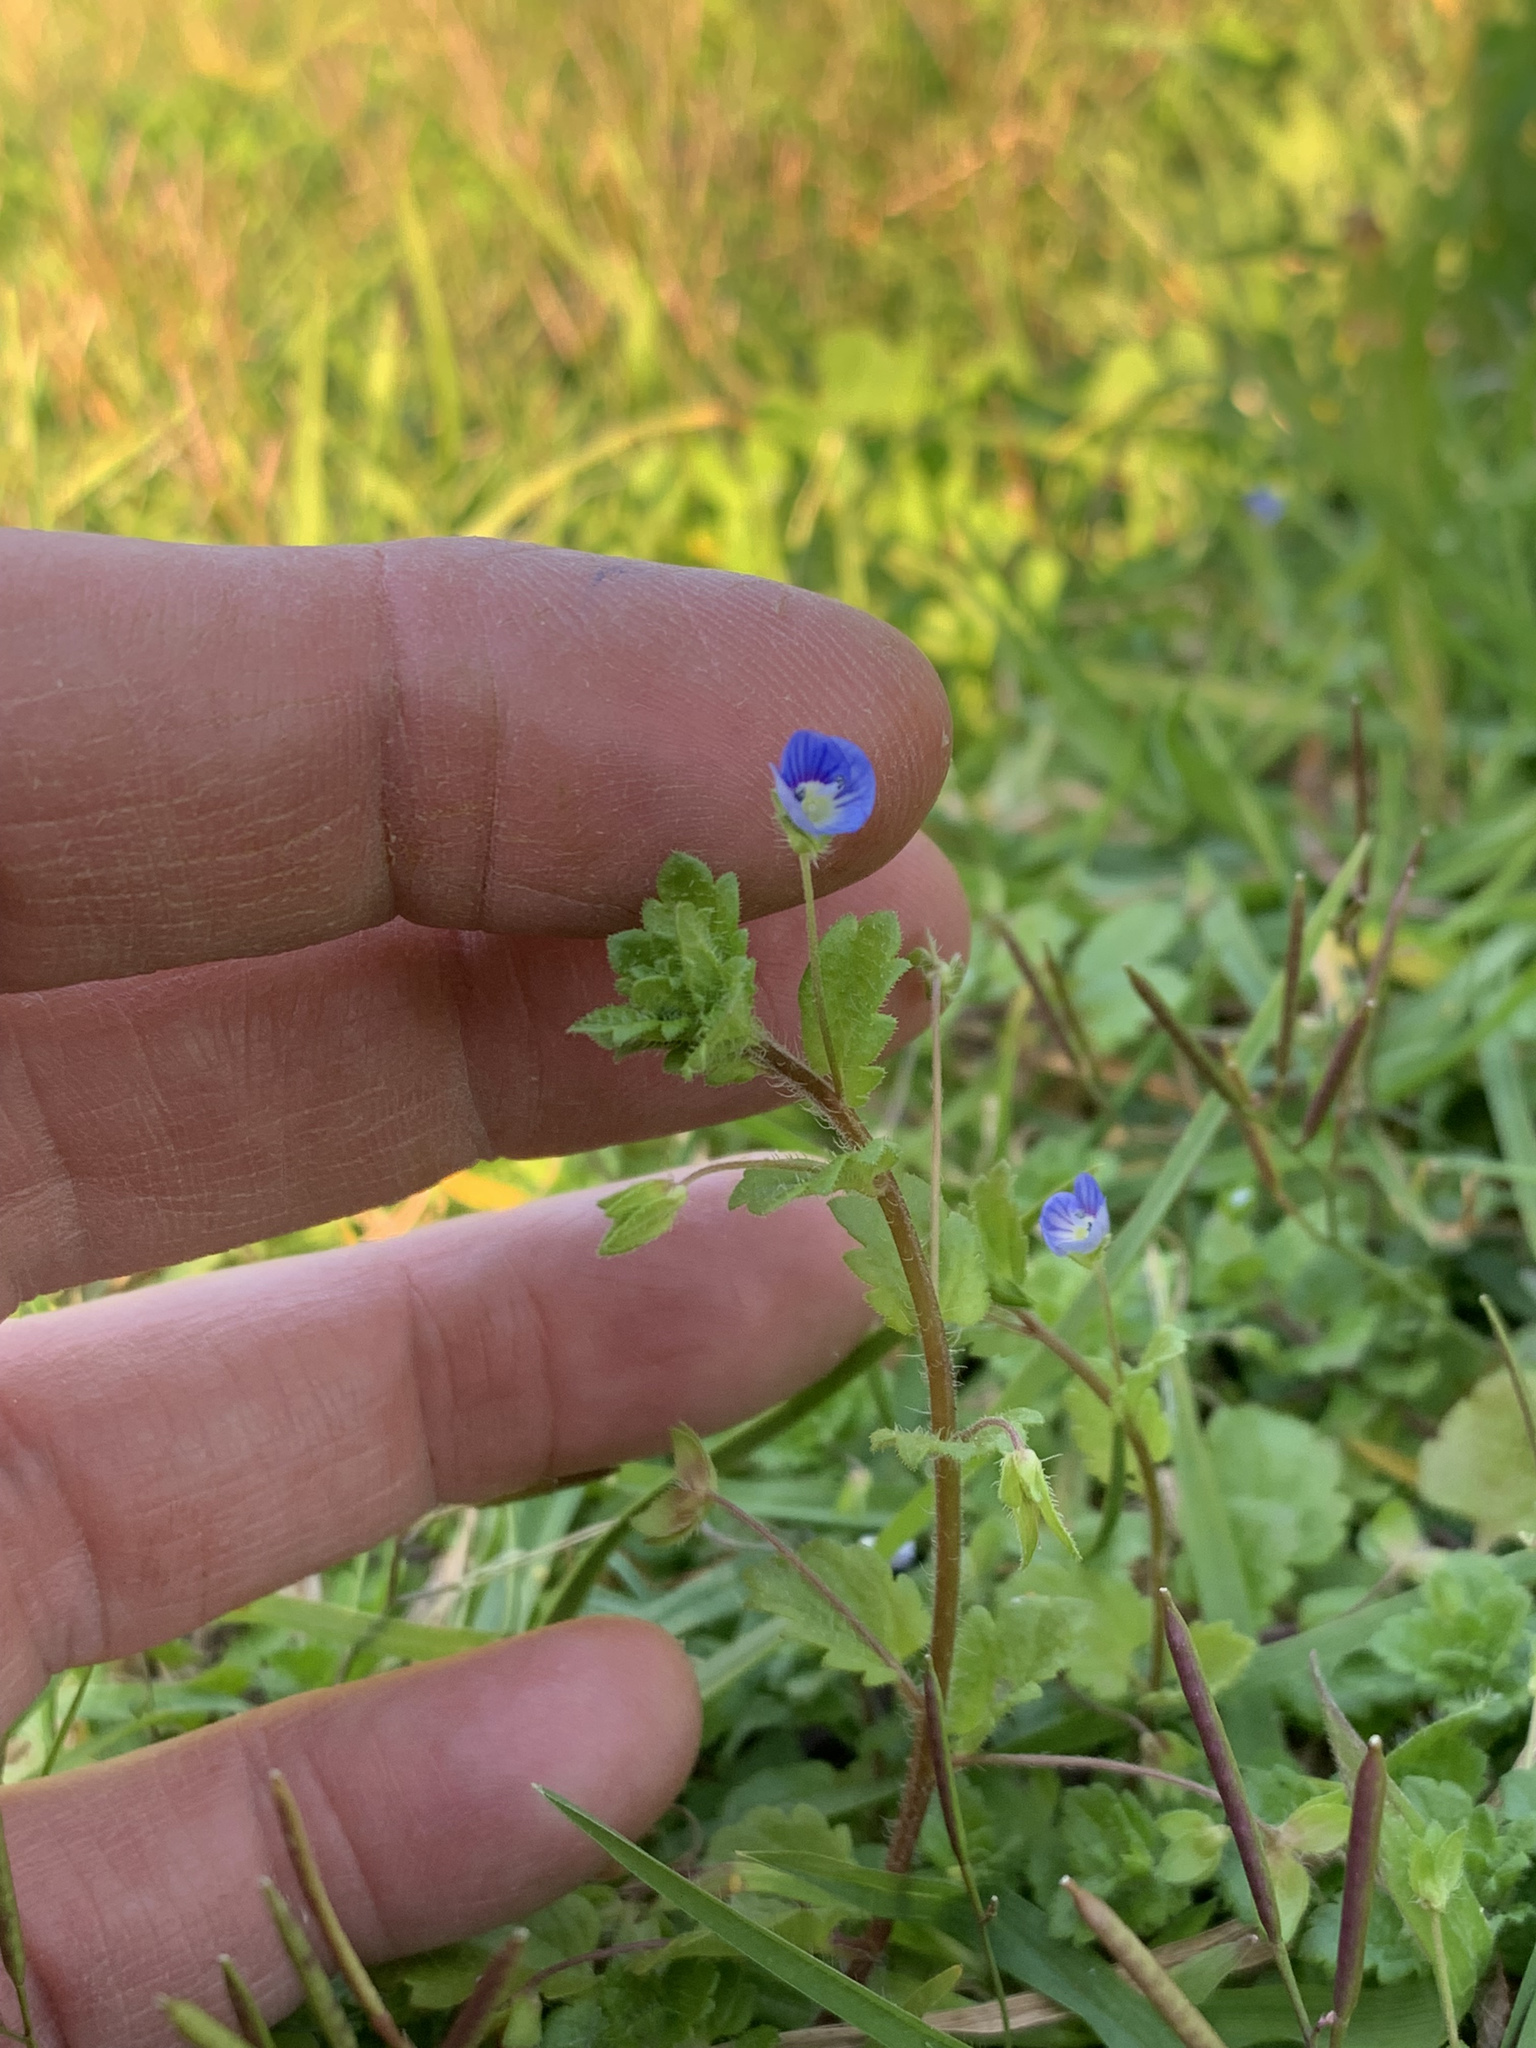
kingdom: Plantae
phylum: Tracheophyta
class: Magnoliopsida
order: Lamiales
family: Plantaginaceae
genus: Veronica
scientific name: Veronica persica
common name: Common field-speedwell
